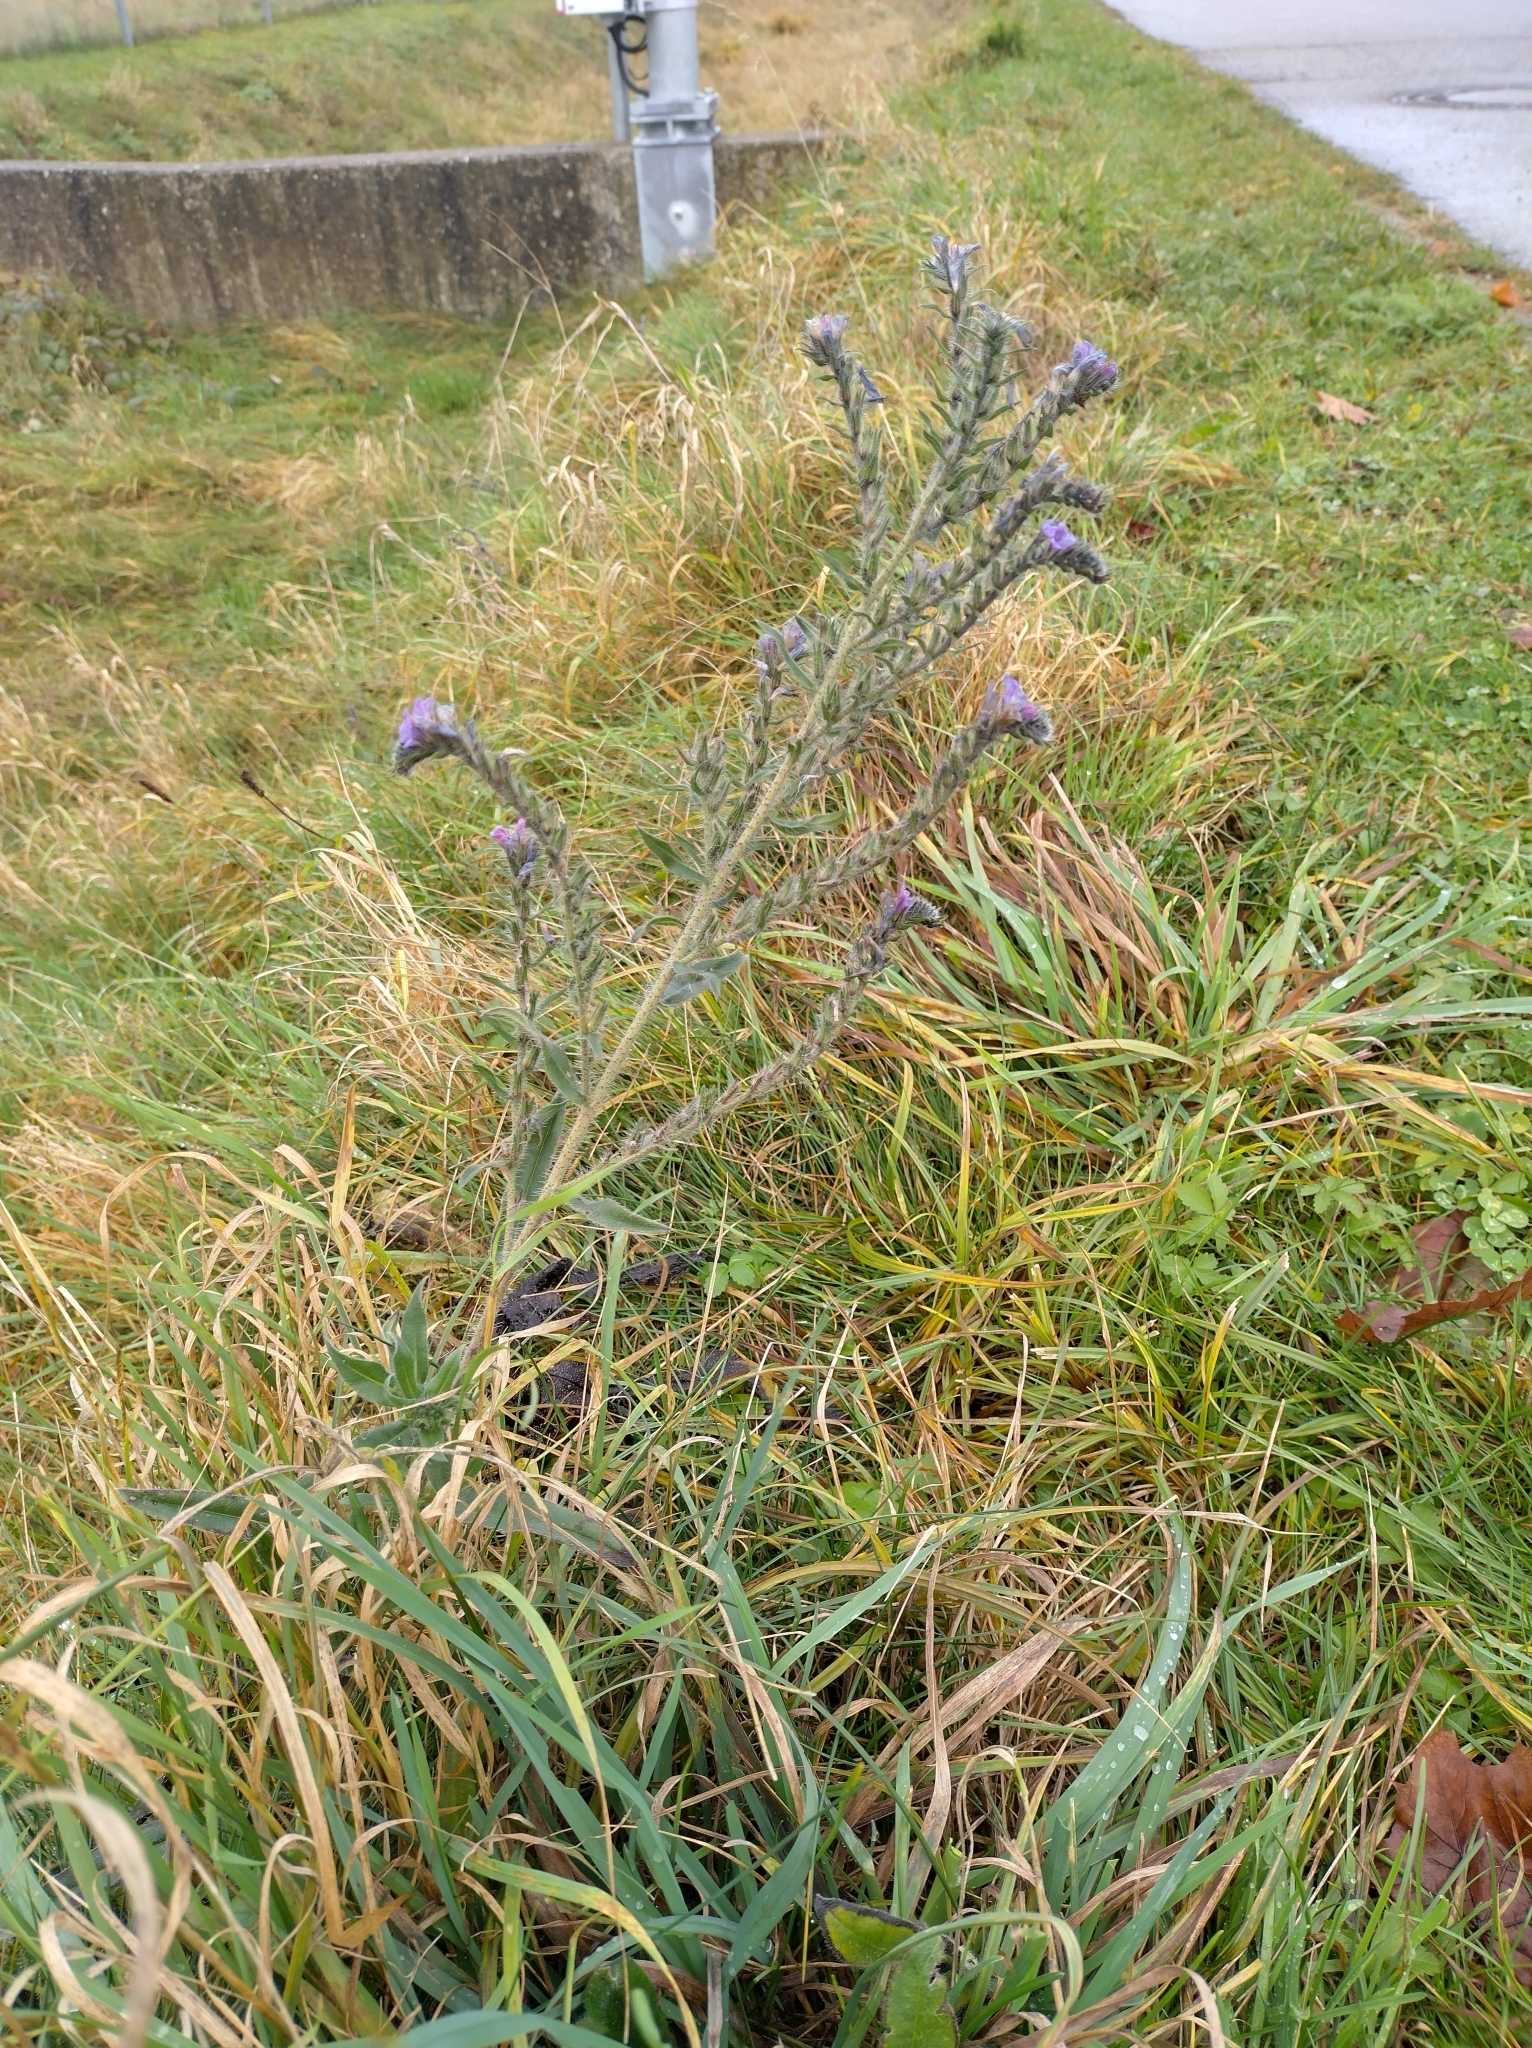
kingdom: Plantae
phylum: Tracheophyta
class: Magnoliopsida
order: Boraginales
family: Boraginaceae
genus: Echium
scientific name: Echium vulgare
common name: Common viper's bugloss
